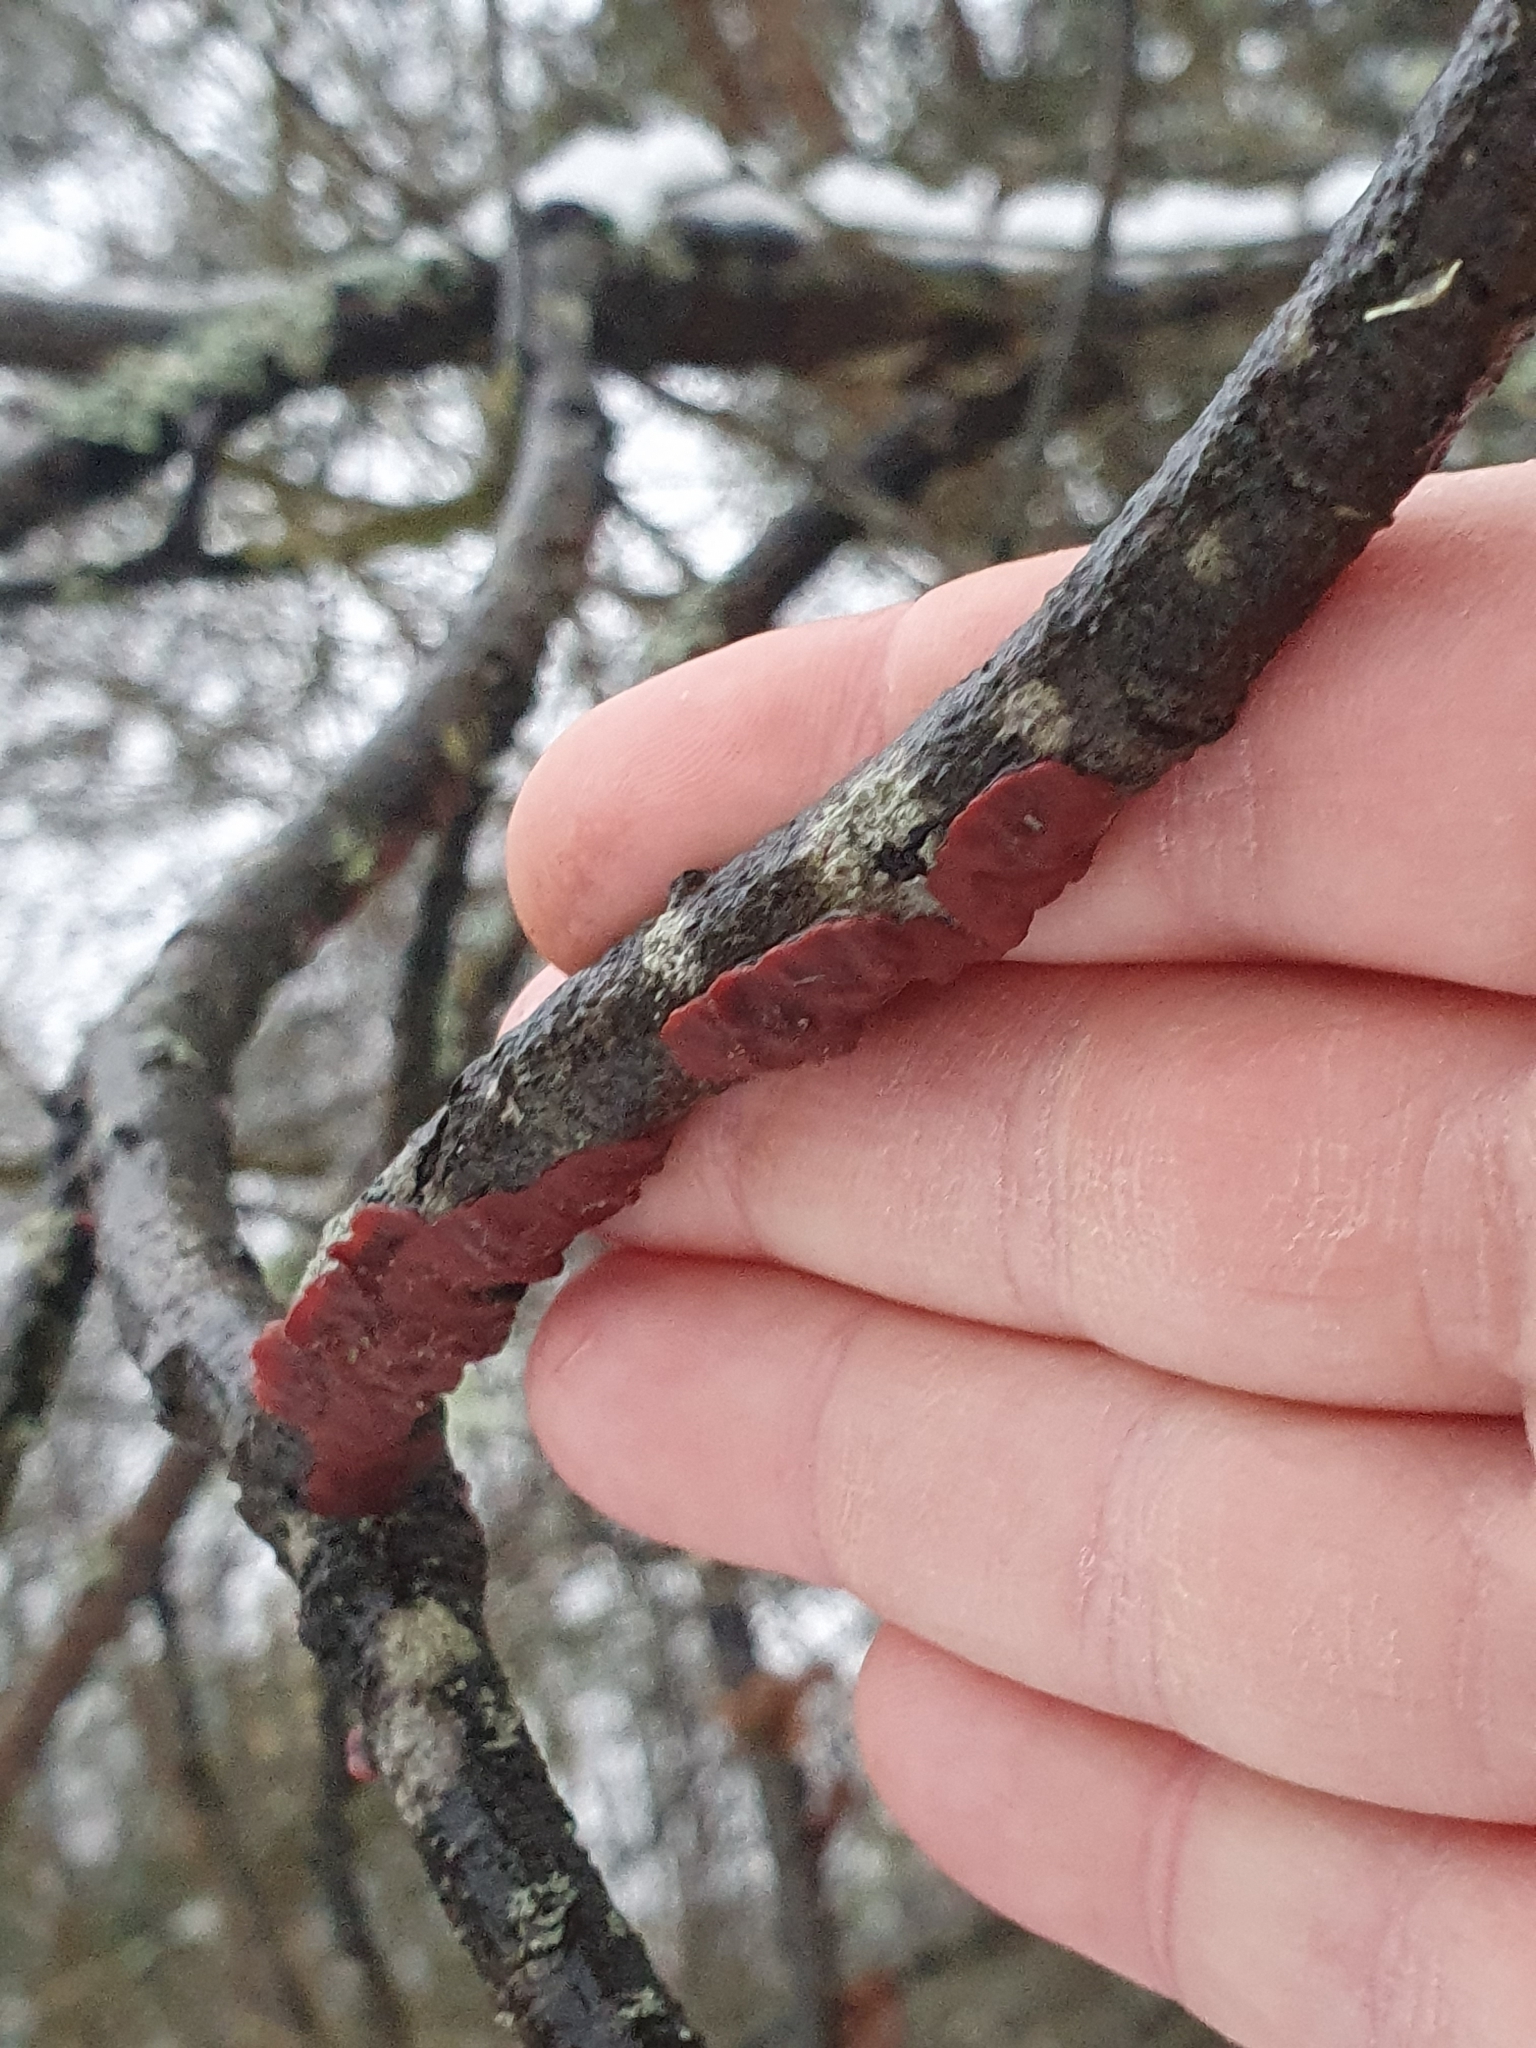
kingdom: Fungi
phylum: Basidiomycota
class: Agaricomycetes
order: Corticiales
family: Vuilleminiaceae
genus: Cytidia
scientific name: Cytidia salicina
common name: Scarlet splash
